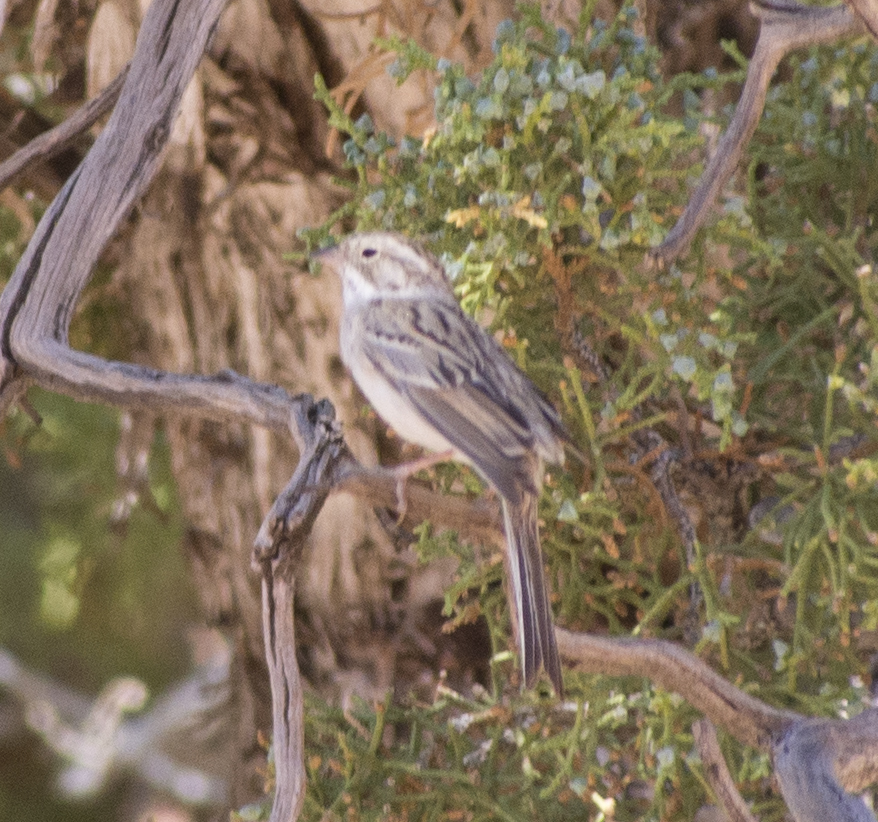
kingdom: Animalia
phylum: Chordata
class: Aves
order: Passeriformes
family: Passerellidae
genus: Spizella
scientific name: Spizella breweri
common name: Brewer's sparrow
